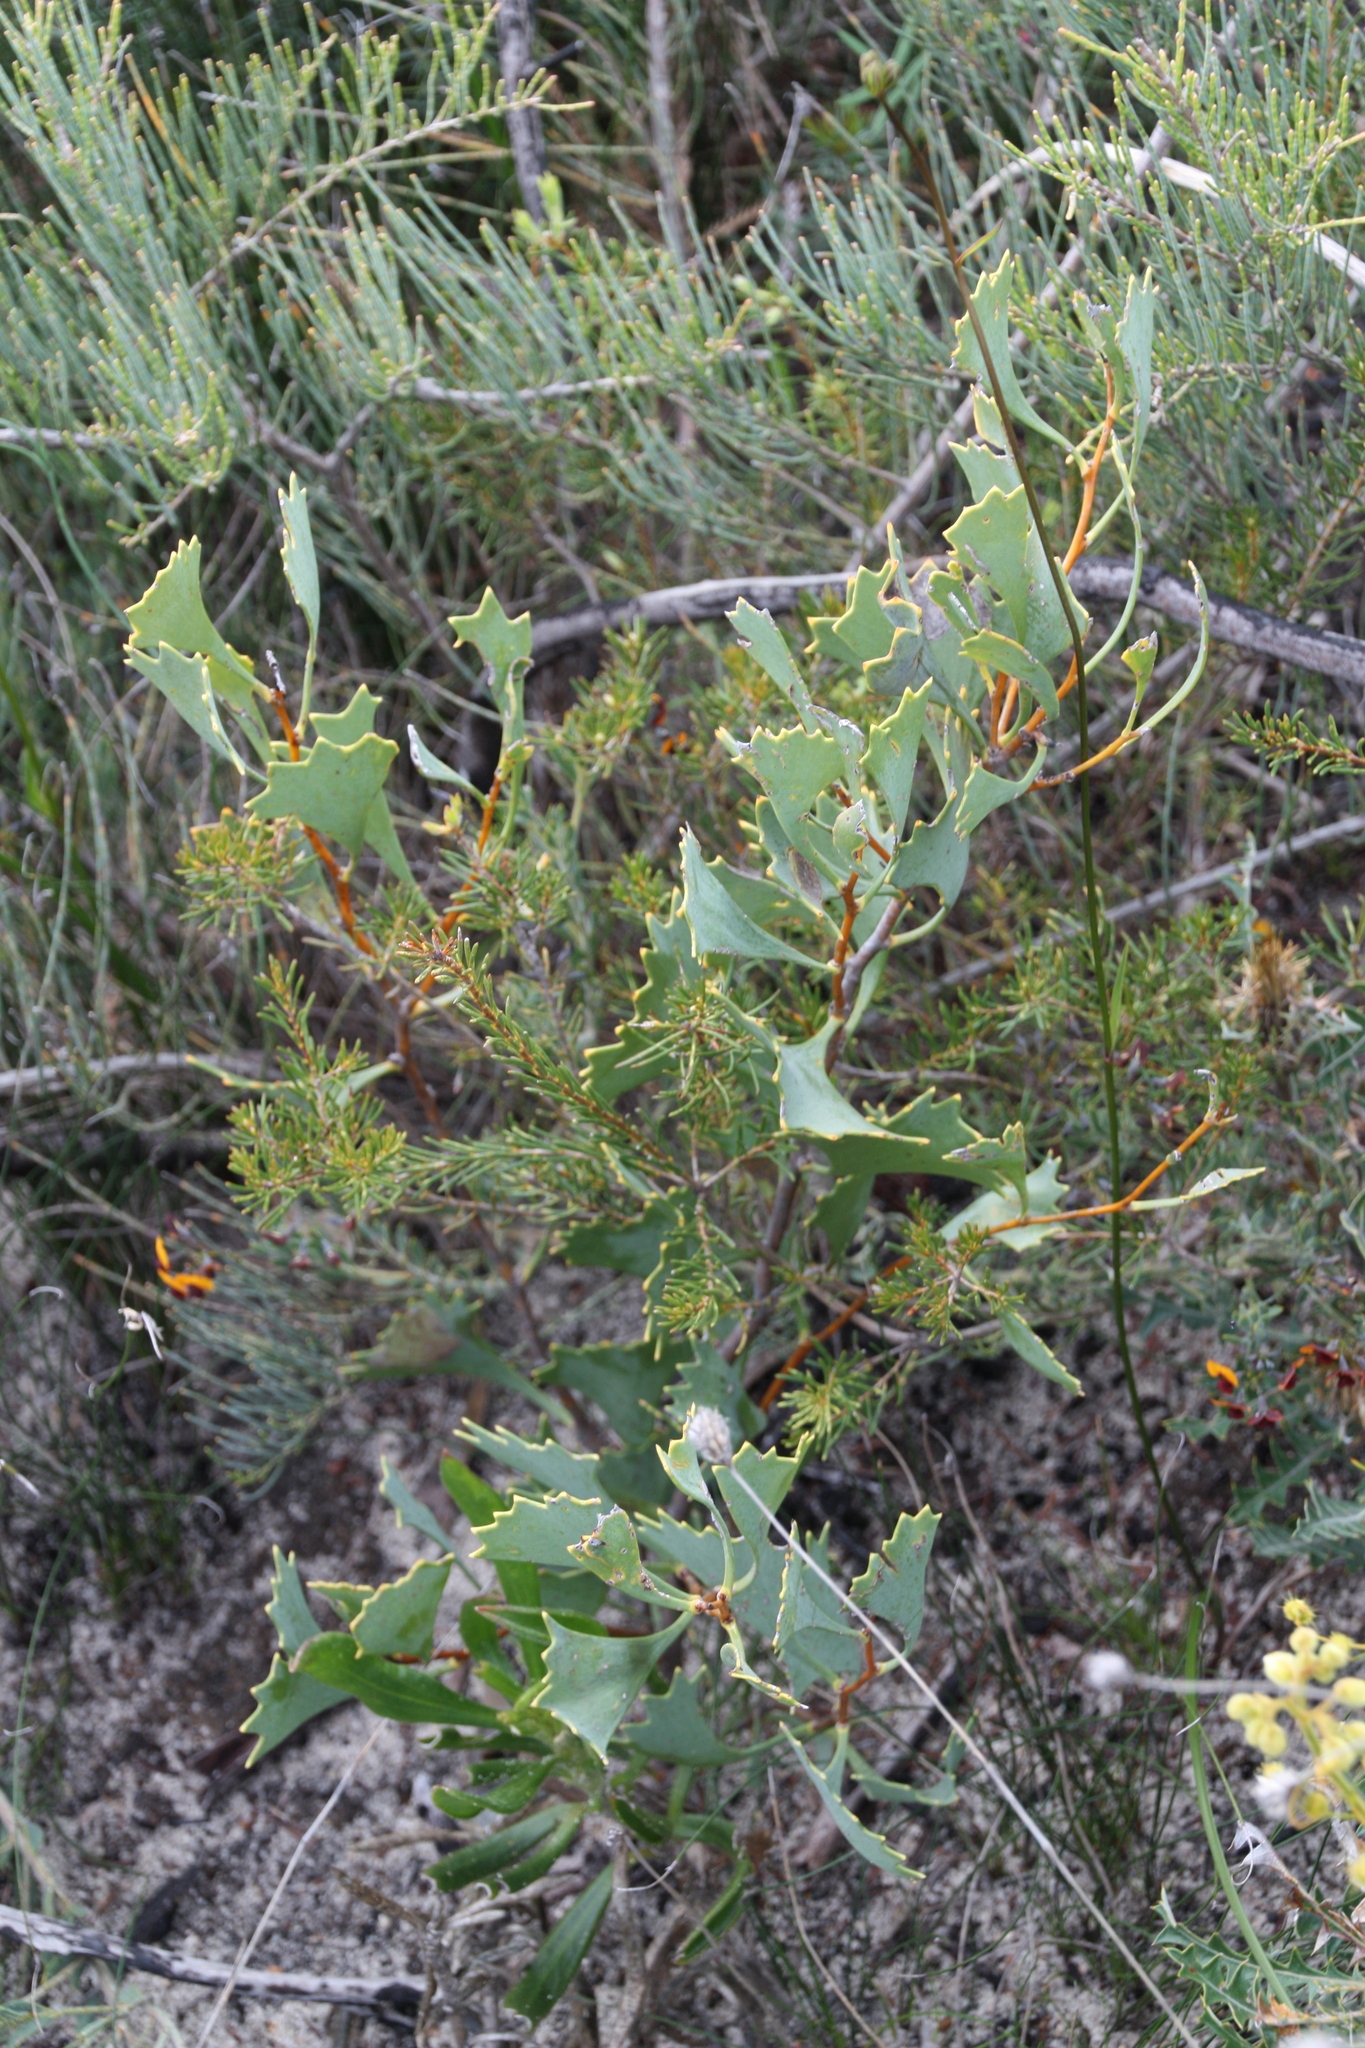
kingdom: Plantae
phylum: Tracheophyta
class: Magnoliopsida
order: Proteales
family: Proteaceae
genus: Hakea
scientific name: Hakea flabellifolia
